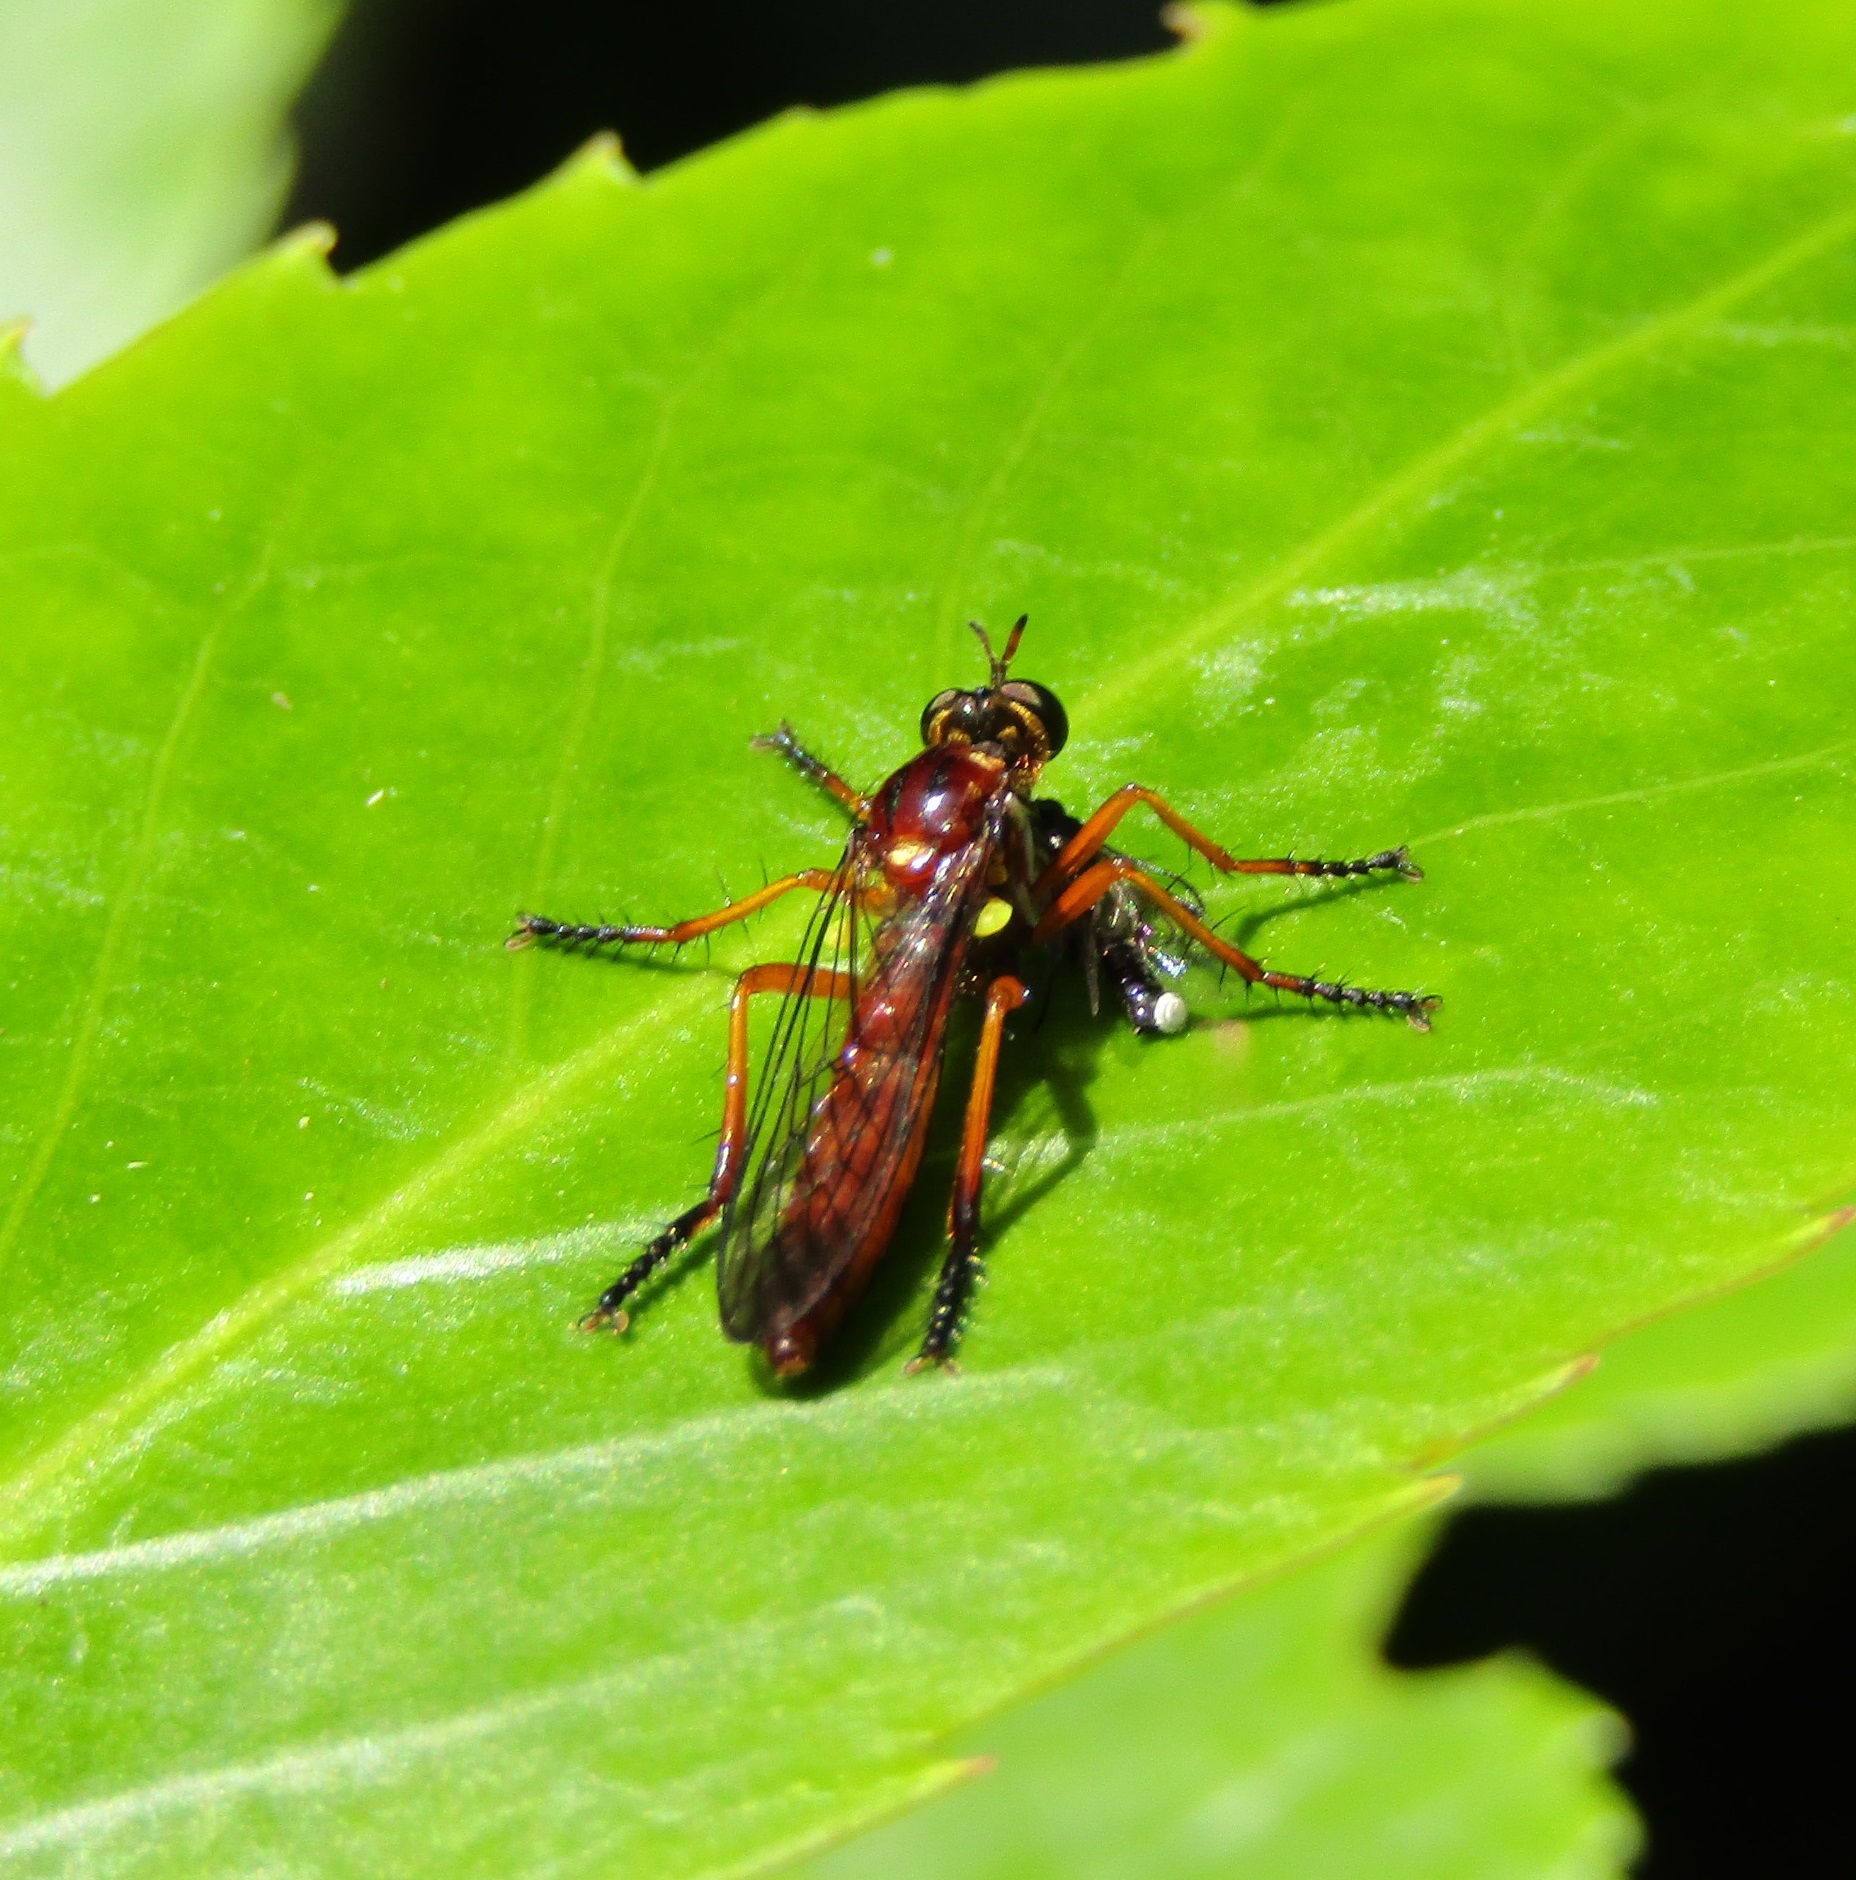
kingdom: Animalia
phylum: Arthropoda
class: Insecta
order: Diptera
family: Asilidae
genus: Saropogon
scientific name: Saropogon antipodus
